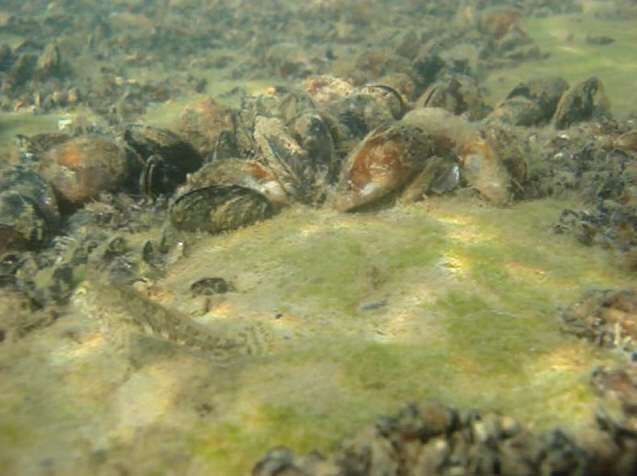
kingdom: Animalia
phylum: Mollusca
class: Bivalvia
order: Mytilida
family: Mytilidae
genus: Mytilus
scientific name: Mytilus galloprovincialis
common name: Mediterranean mussel
